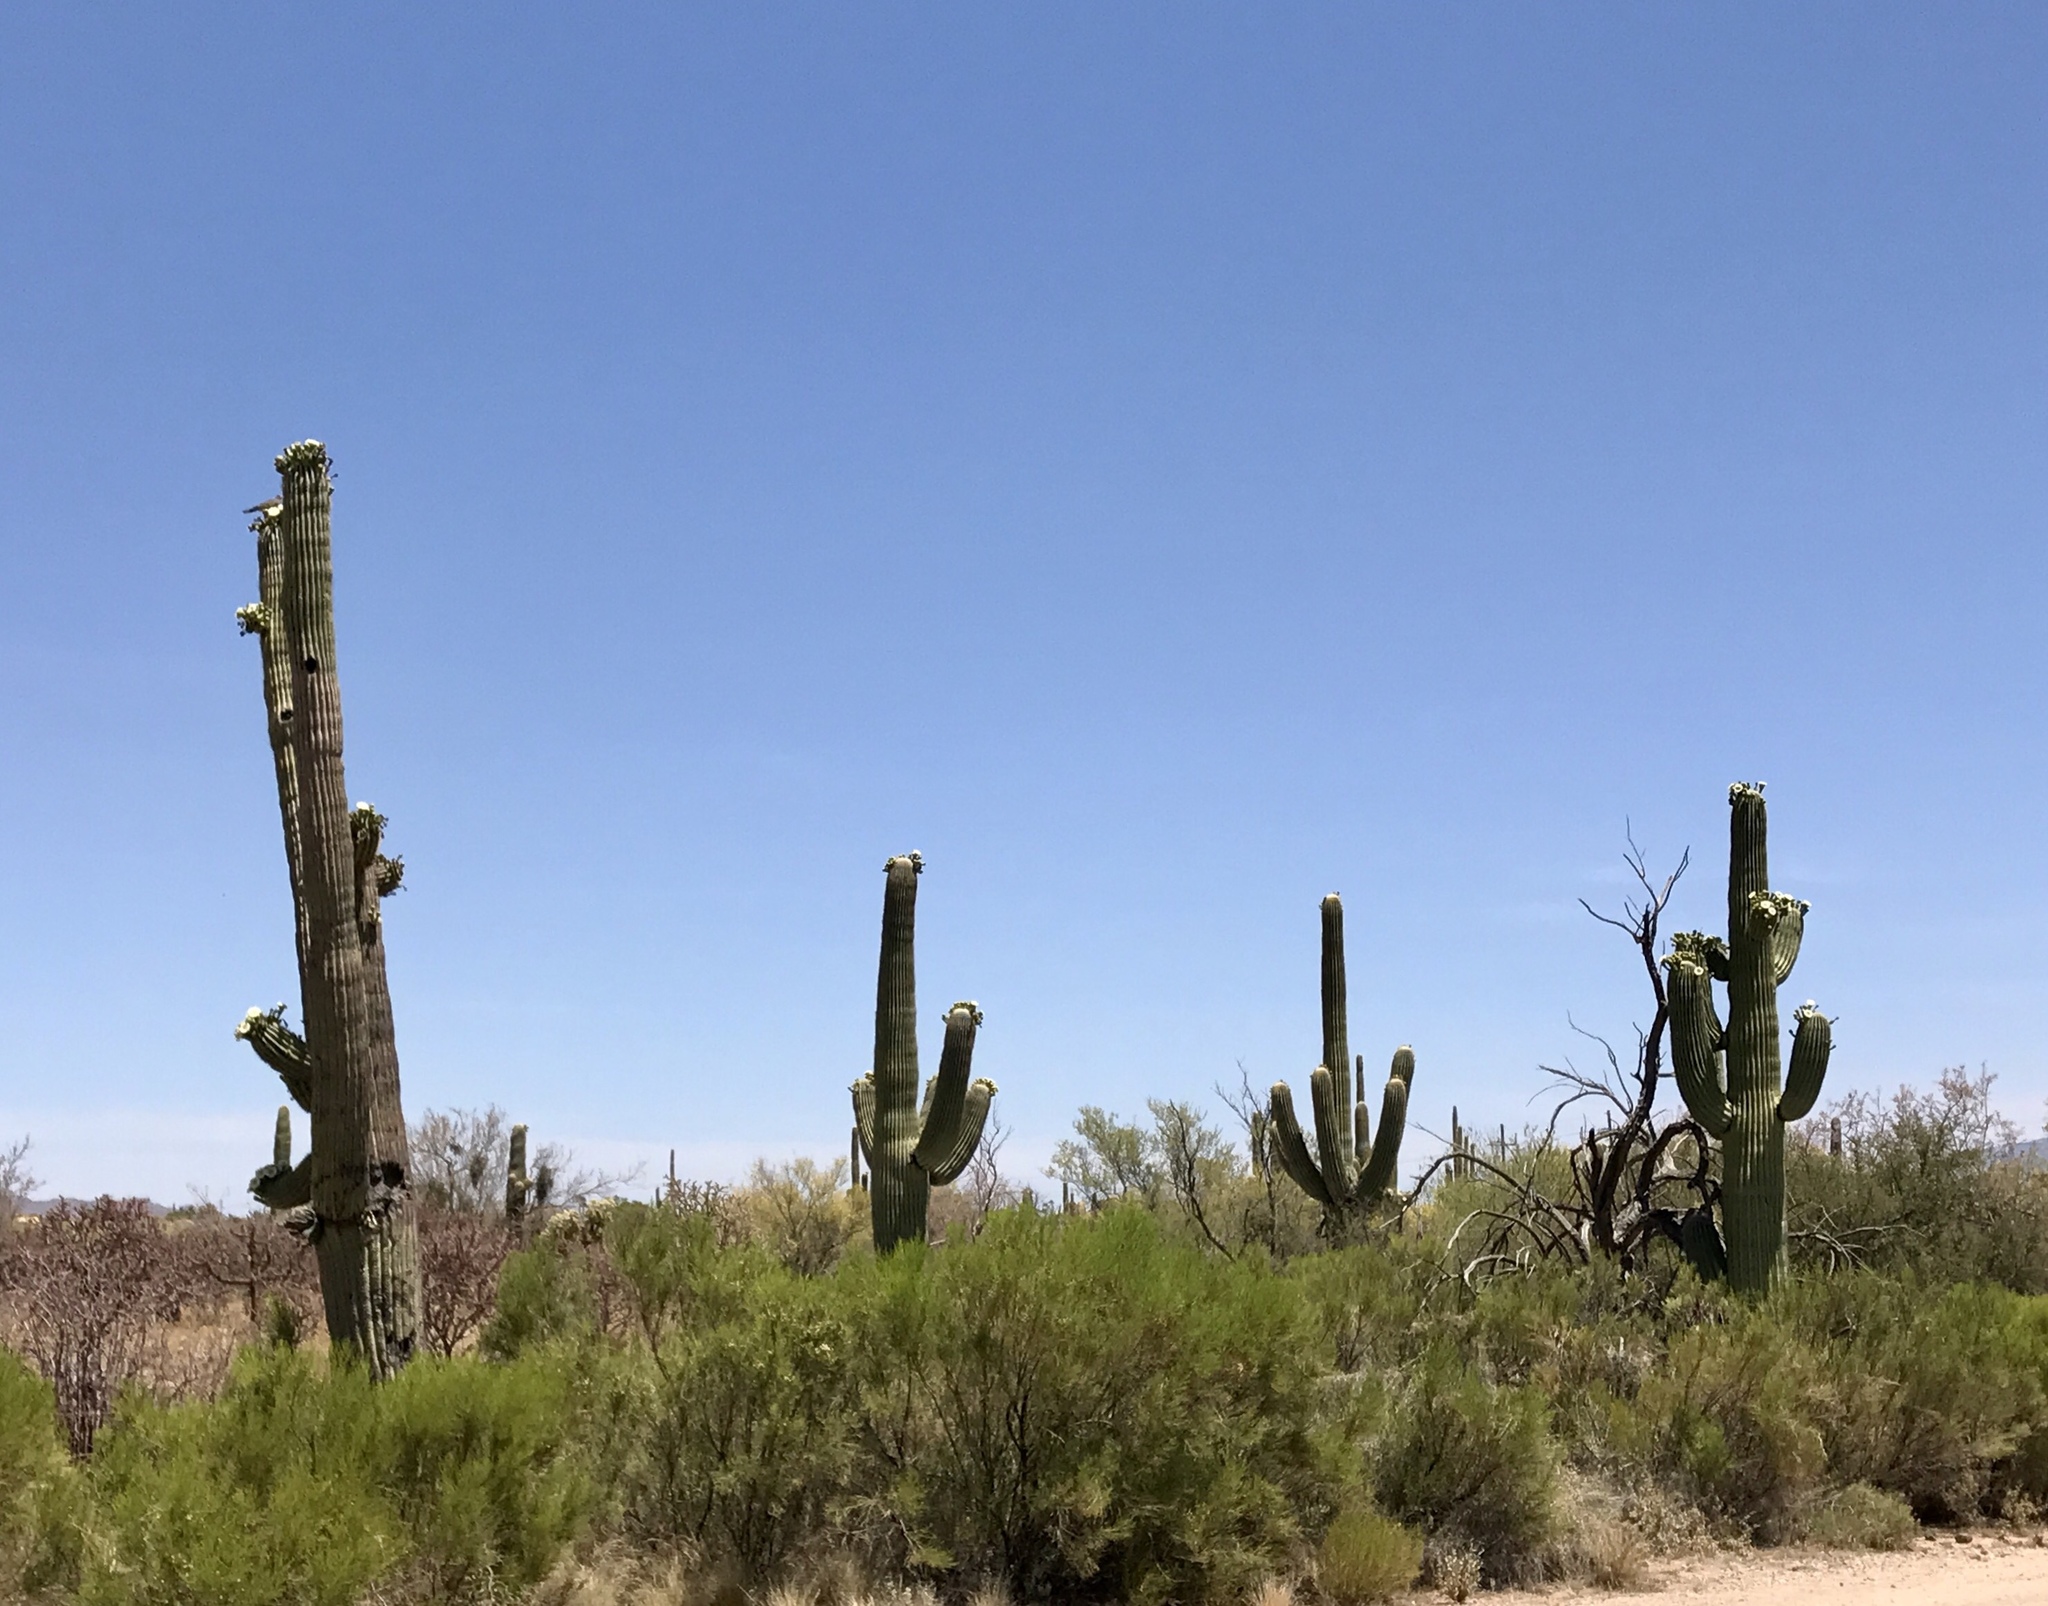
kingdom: Plantae
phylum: Tracheophyta
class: Magnoliopsida
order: Caryophyllales
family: Cactaceae
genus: Carnegiea
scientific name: Carnegiea gigantea
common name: Saguaro
